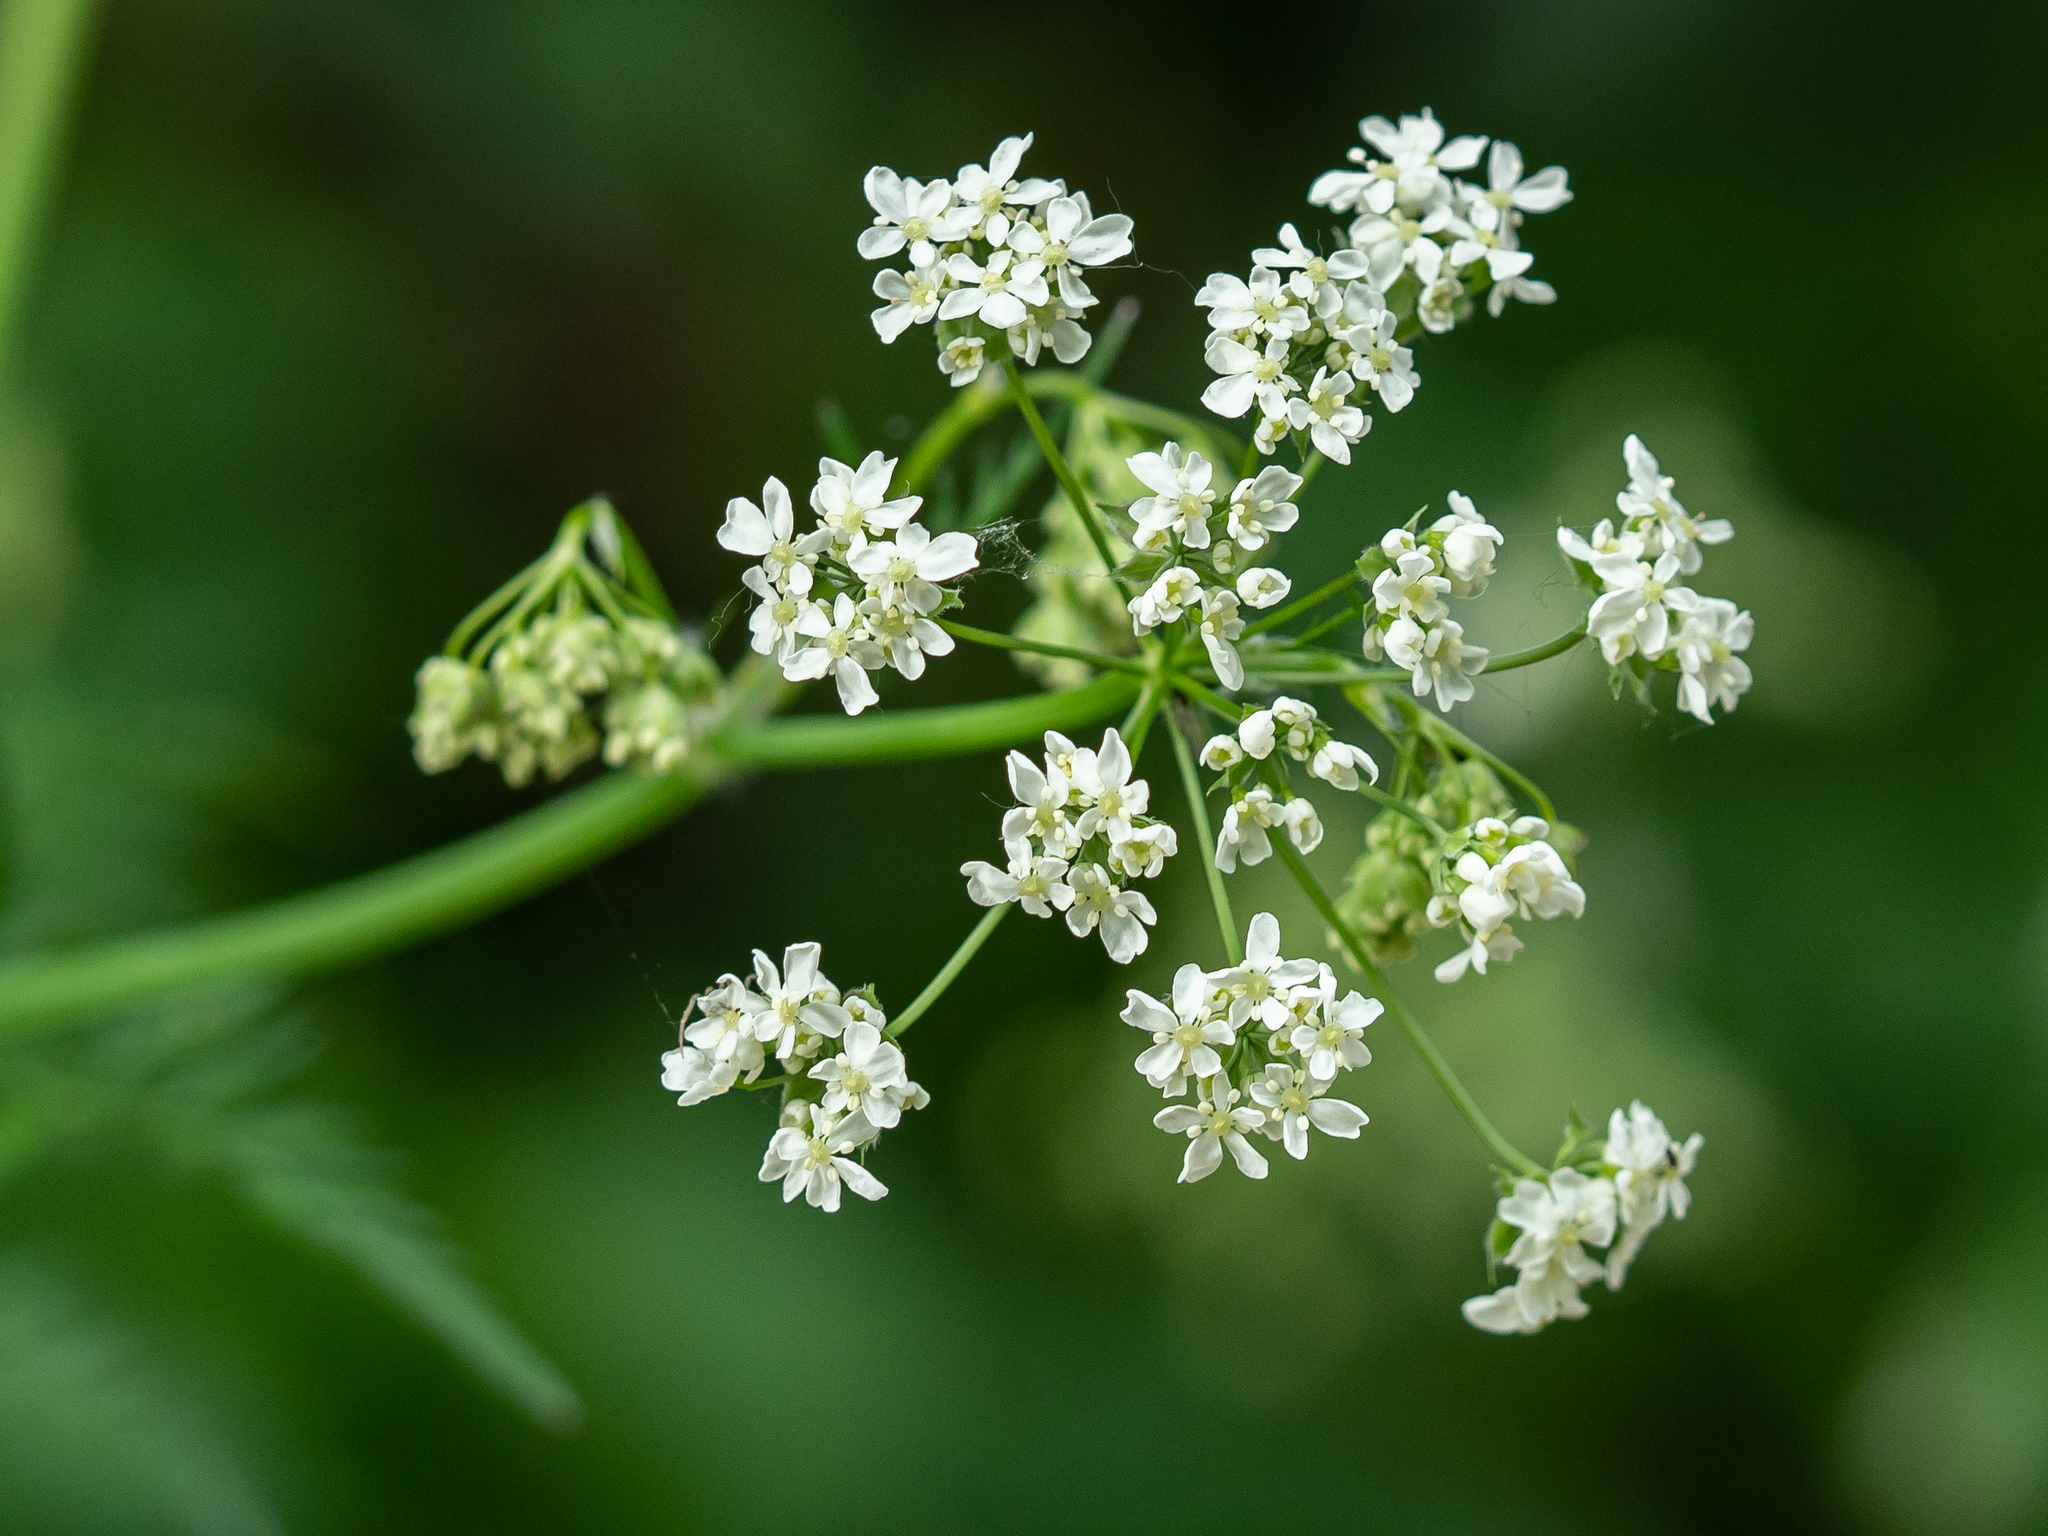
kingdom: Plantae
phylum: Tracheophyta
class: Magnoliopsida
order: Apiales
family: Apiaceae
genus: Anthriscus
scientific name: Anthriscus sylvestris
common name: Cow parsley
